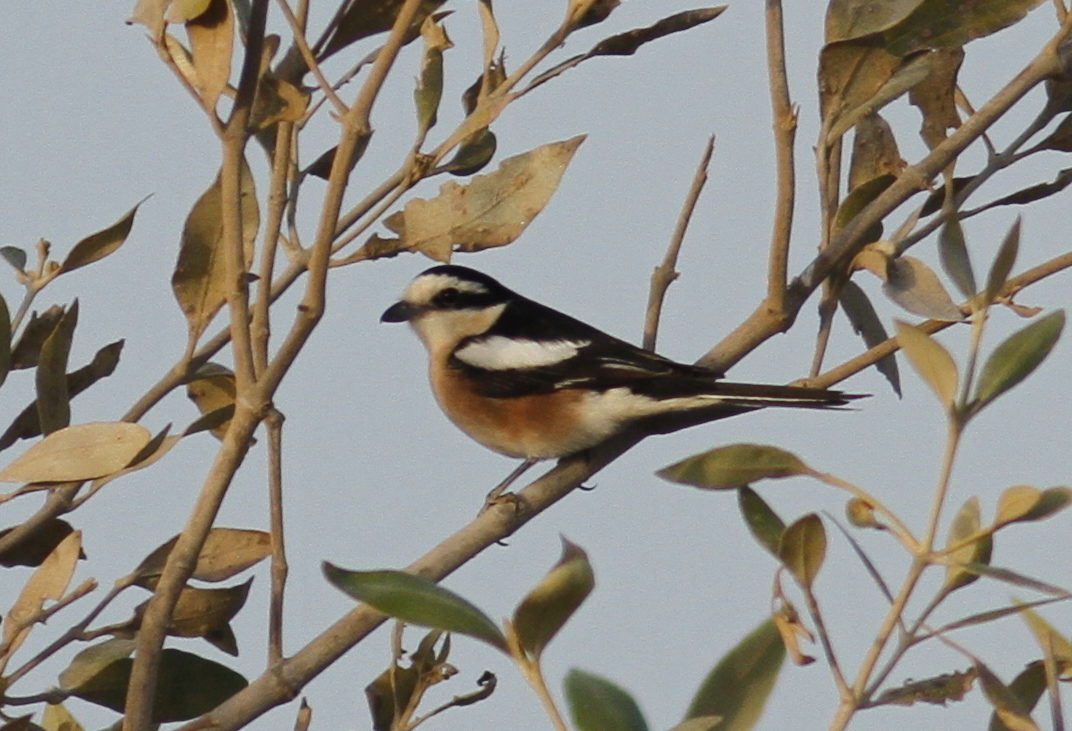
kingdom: Animalia
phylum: Chordata
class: Aves
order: Passeriformes
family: Laniidae
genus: Lanius
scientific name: Lanius nubicus
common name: Masked shrike
